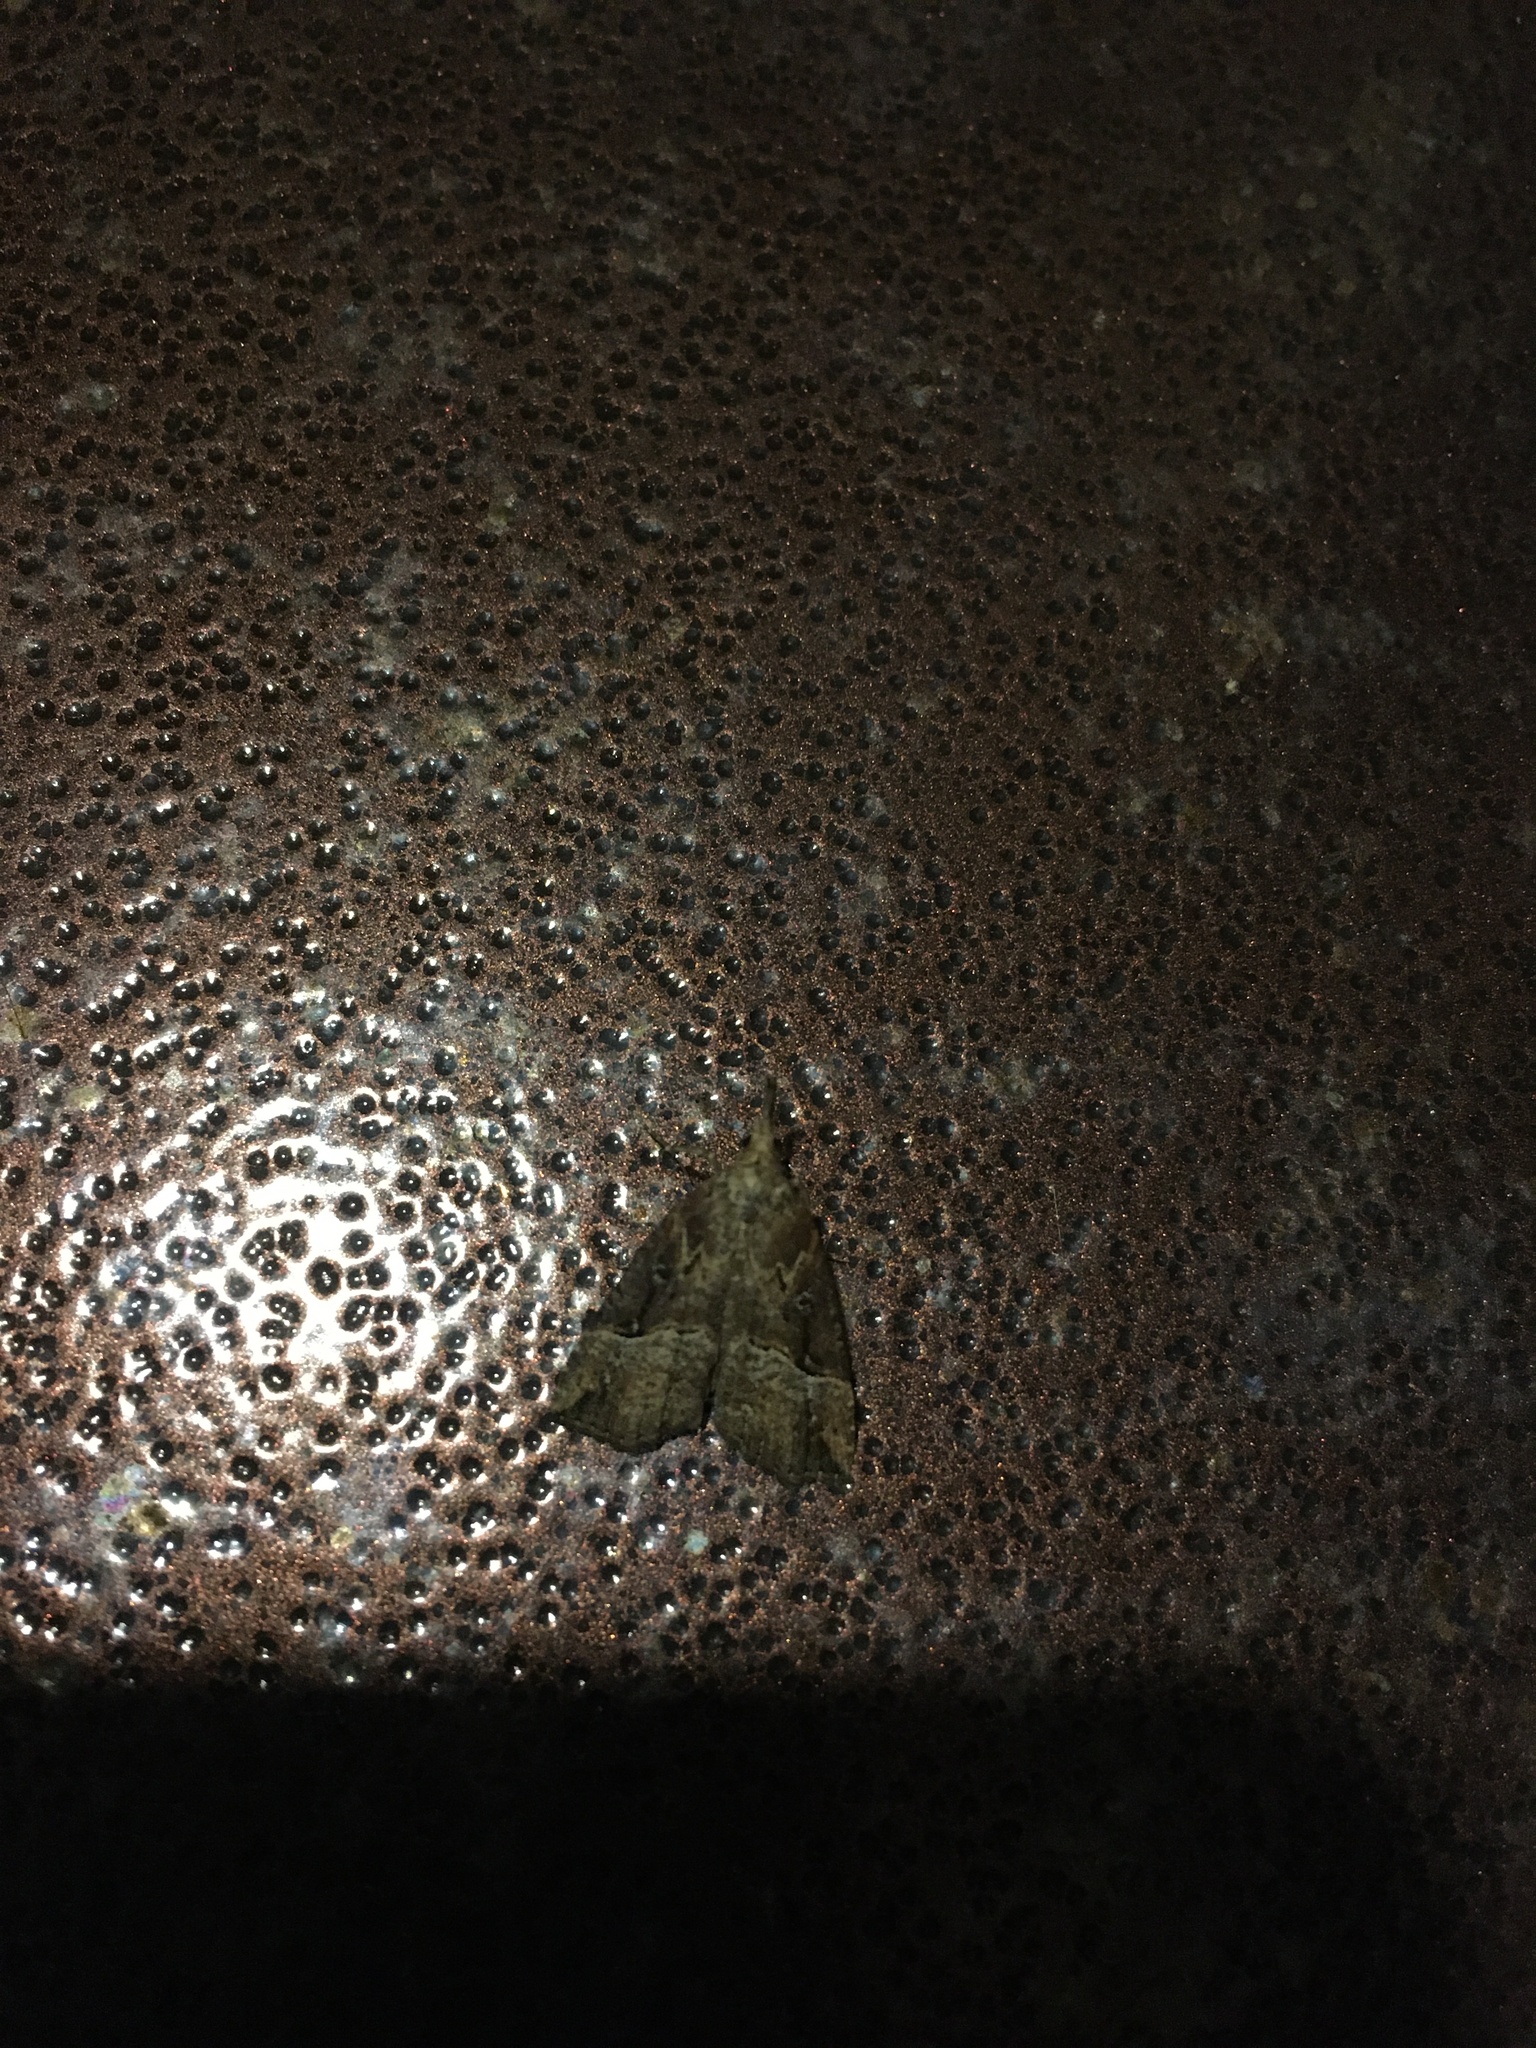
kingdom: Animalia
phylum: Arthropoda
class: Insecta
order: Lepidoptera
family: Erebidae
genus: Hypena
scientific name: Hypena rostralis
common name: Buttoned snout
